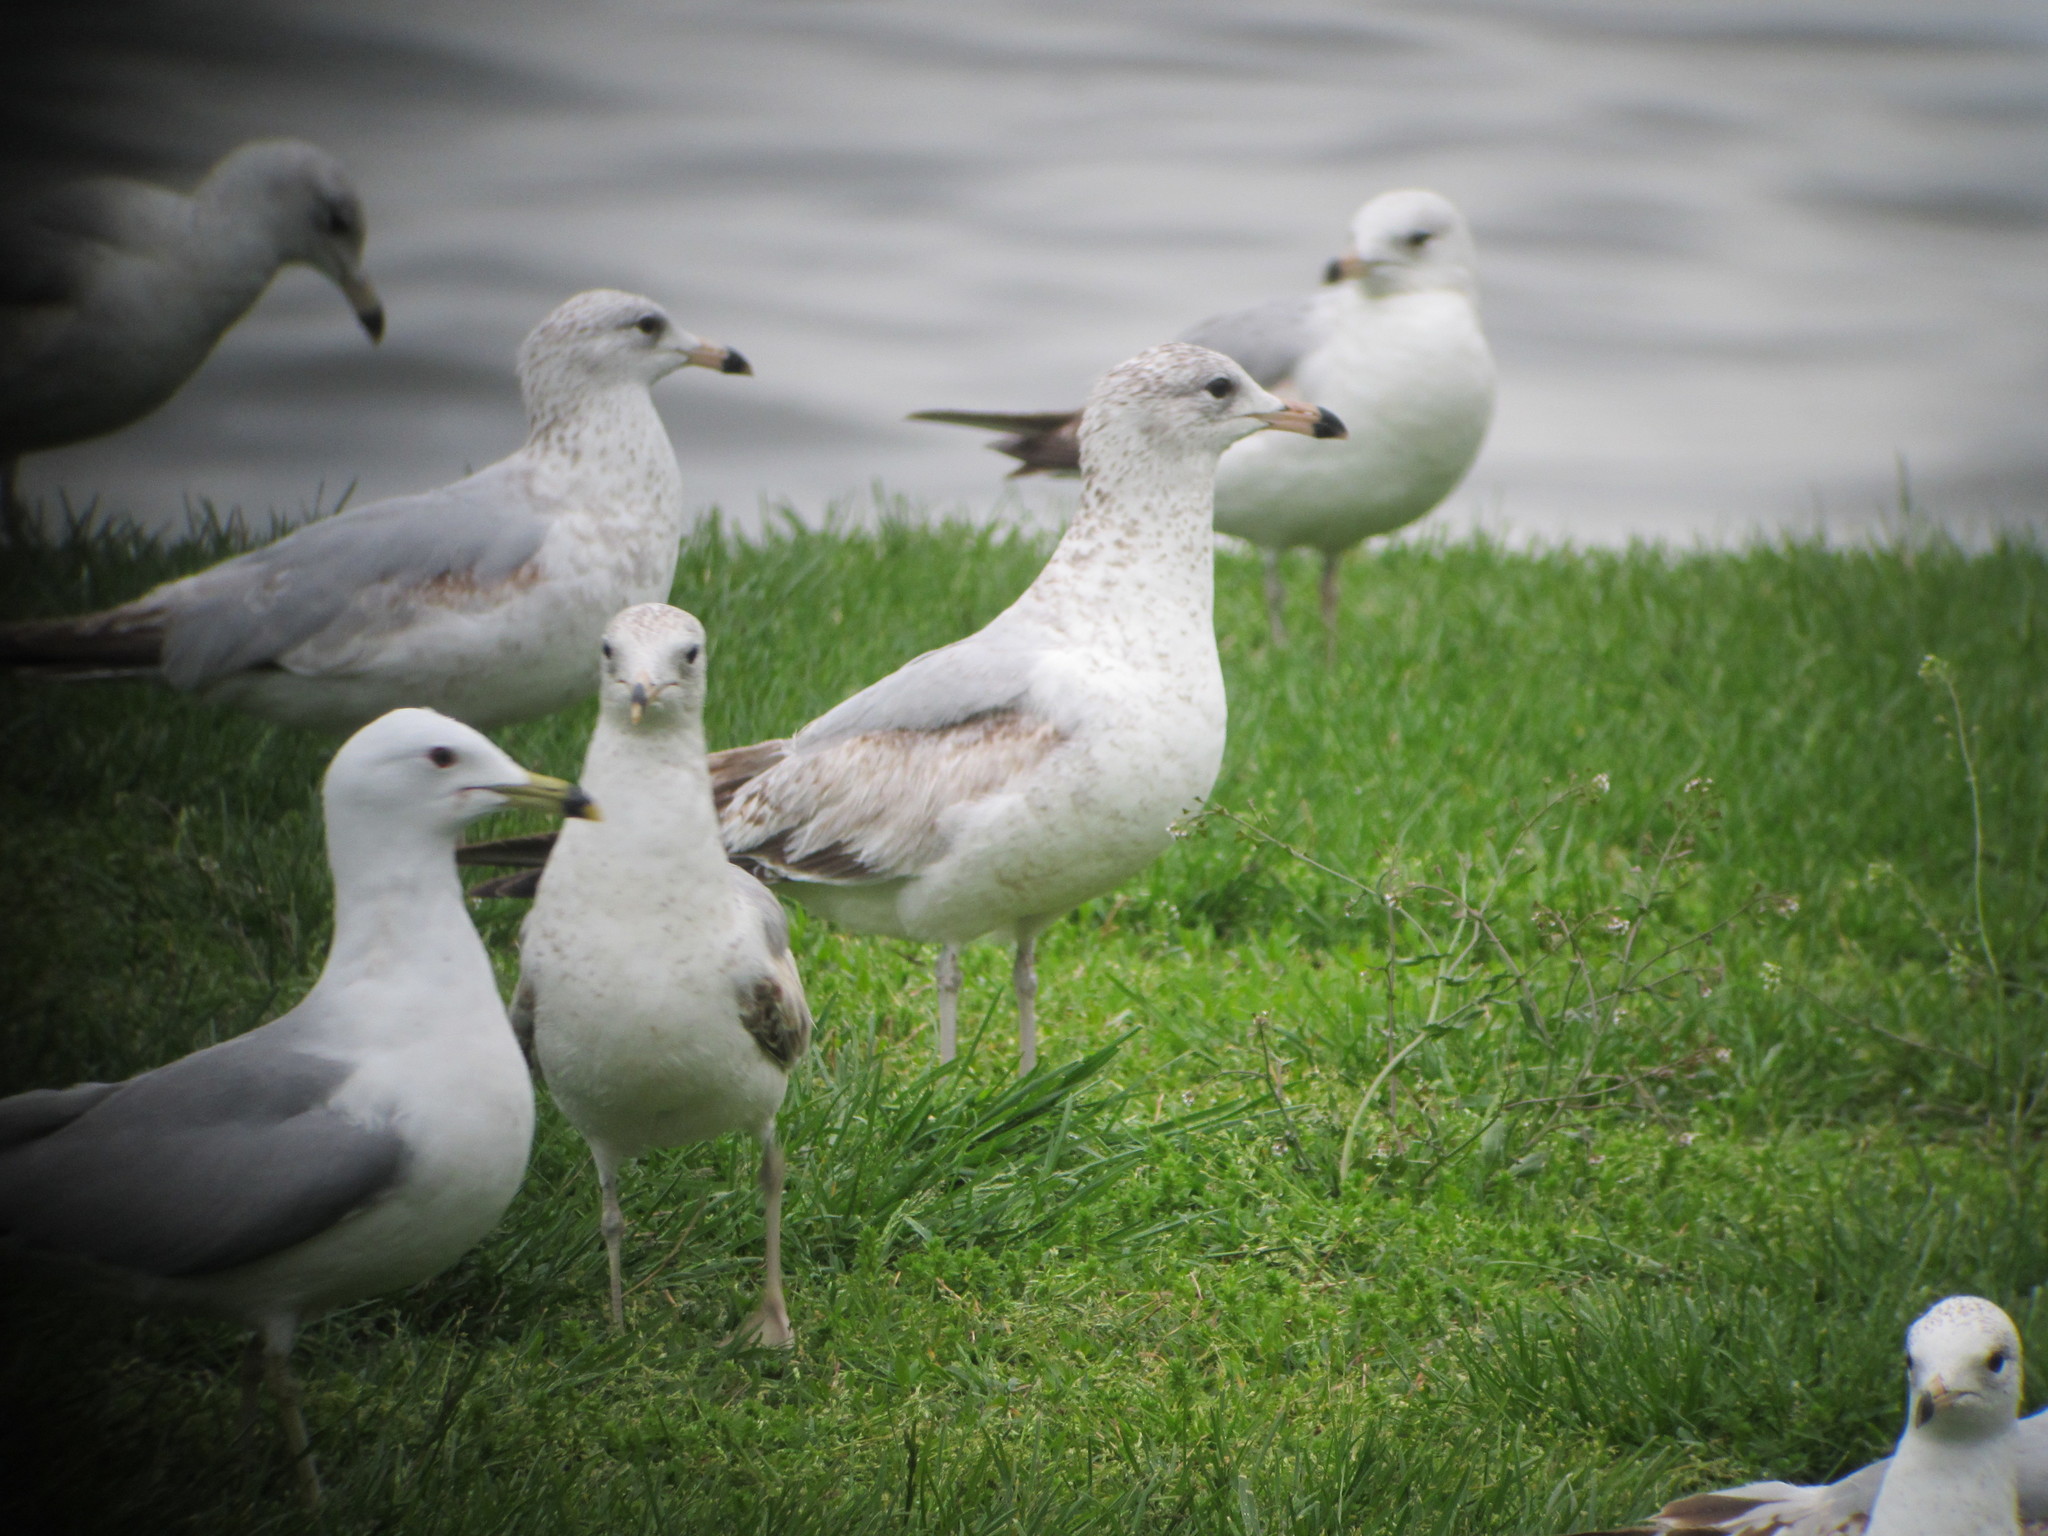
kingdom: Animalia
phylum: Chordata
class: Aves
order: Charadriiformes
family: Laridae
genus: Larus
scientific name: Larus delawarensis
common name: Ring-billed gull
